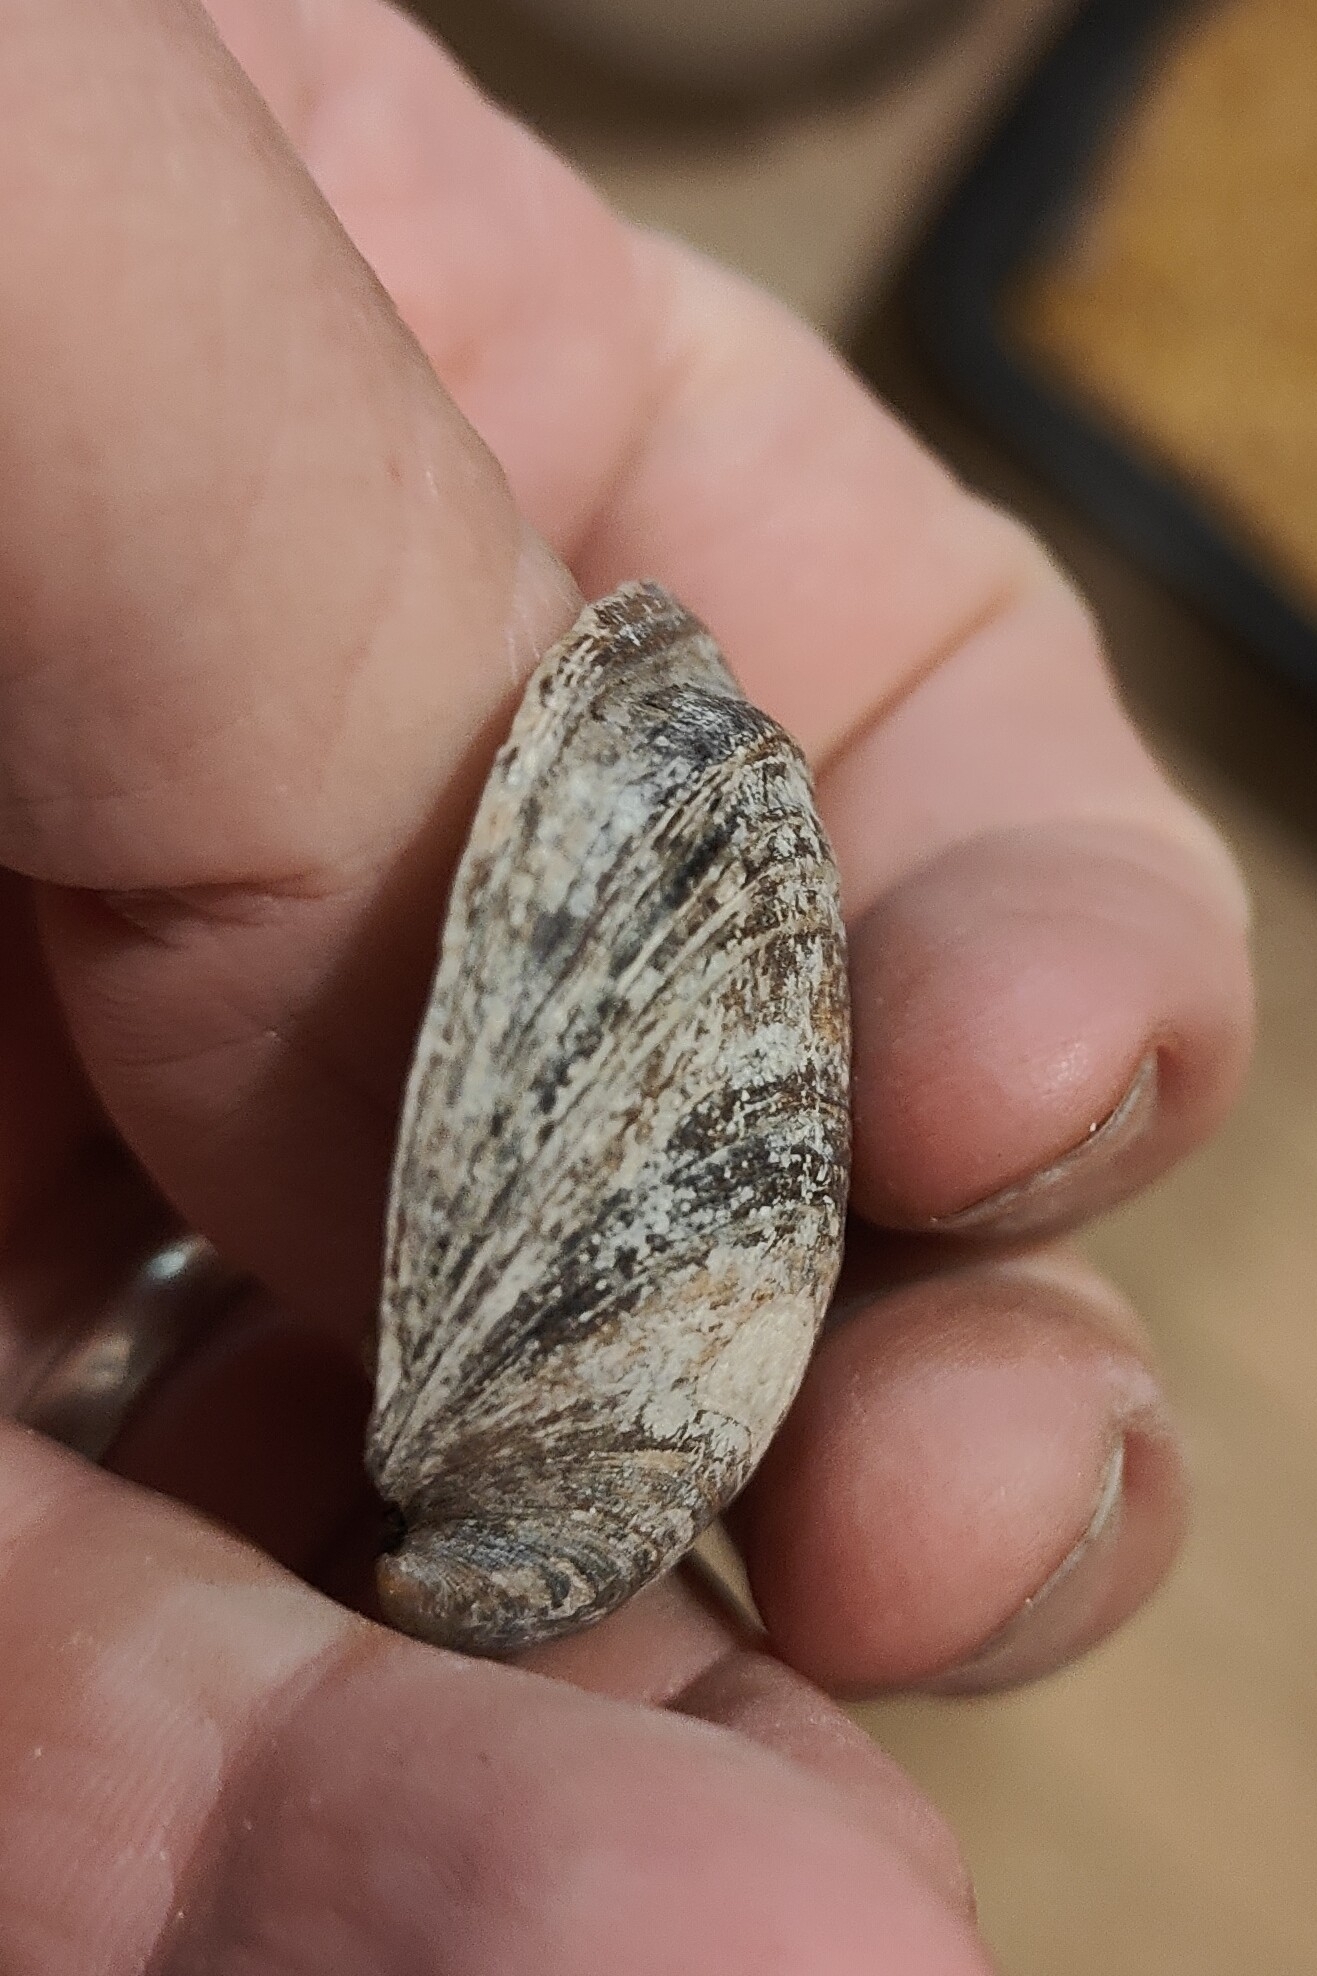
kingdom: Animalia
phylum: Mollusca
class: Bivalvia
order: Unionida
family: Unionidae
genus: Fusconaia
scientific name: Fusconaia flava
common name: Wabash pigtoe
